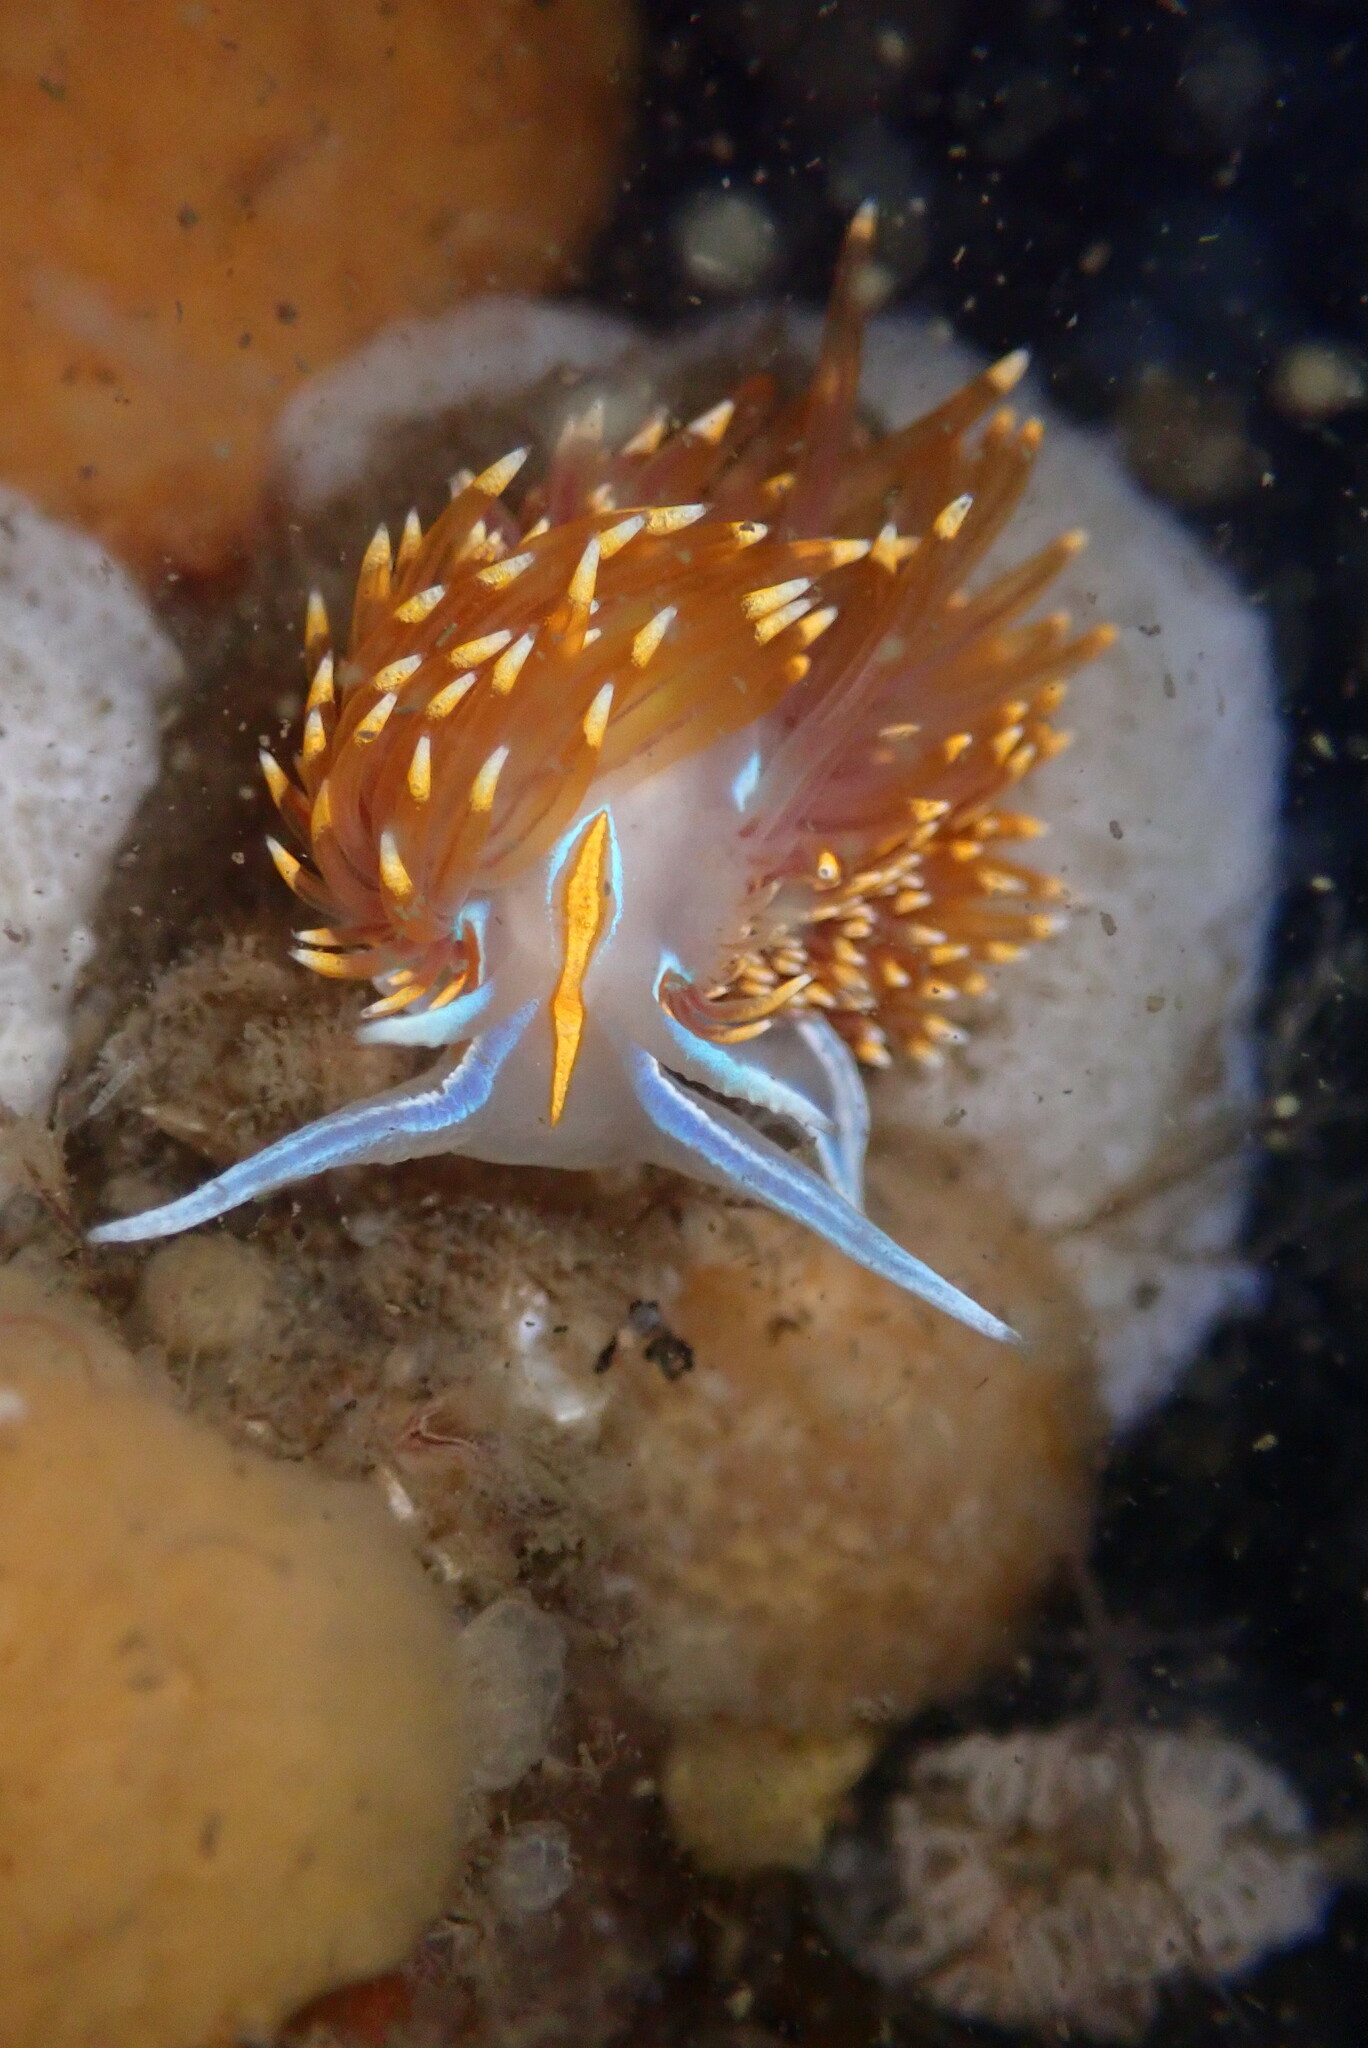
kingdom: Animalia
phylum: Mollusca
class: Gastropoda
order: Nudibranchia
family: Myrrhinidae
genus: Hermissenda
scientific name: Hermissenda opalescens
